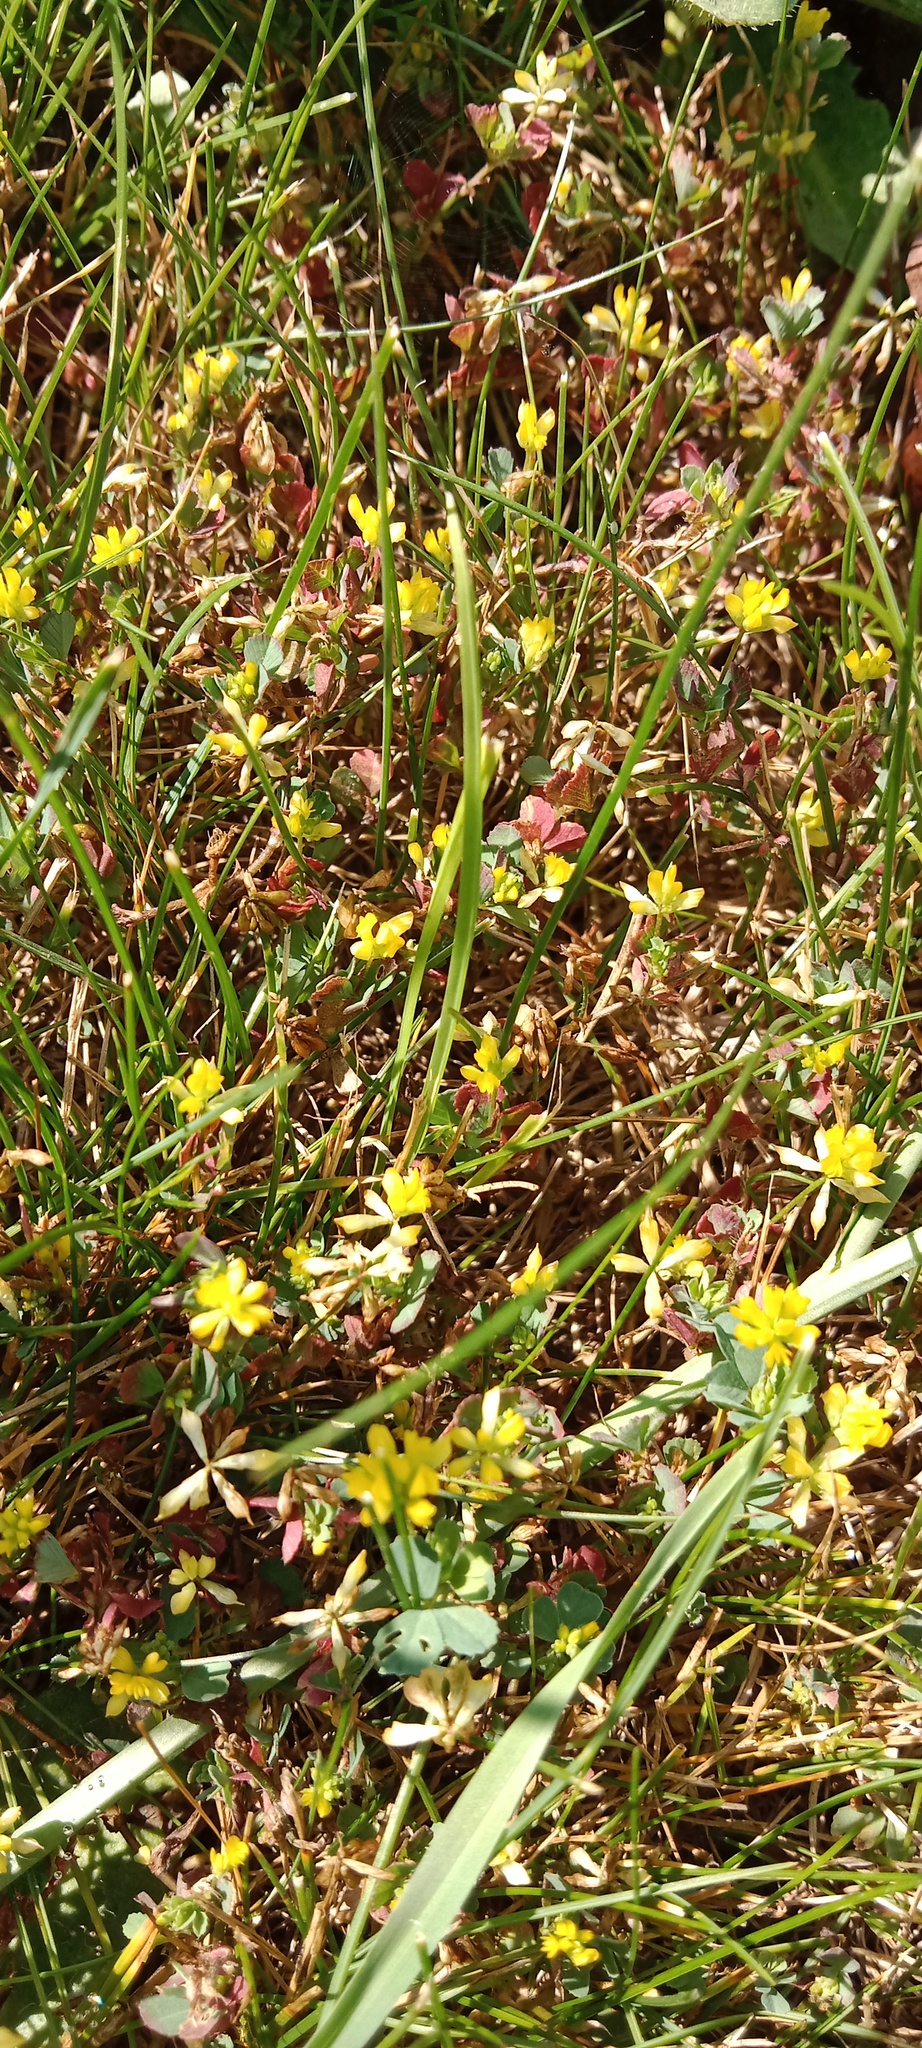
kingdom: Plantae
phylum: Tracheophyta
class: Magnoliopsida
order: Fabales
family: Fabaceae
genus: Trifolium
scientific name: Trifolium dubium
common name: Suckling clover
